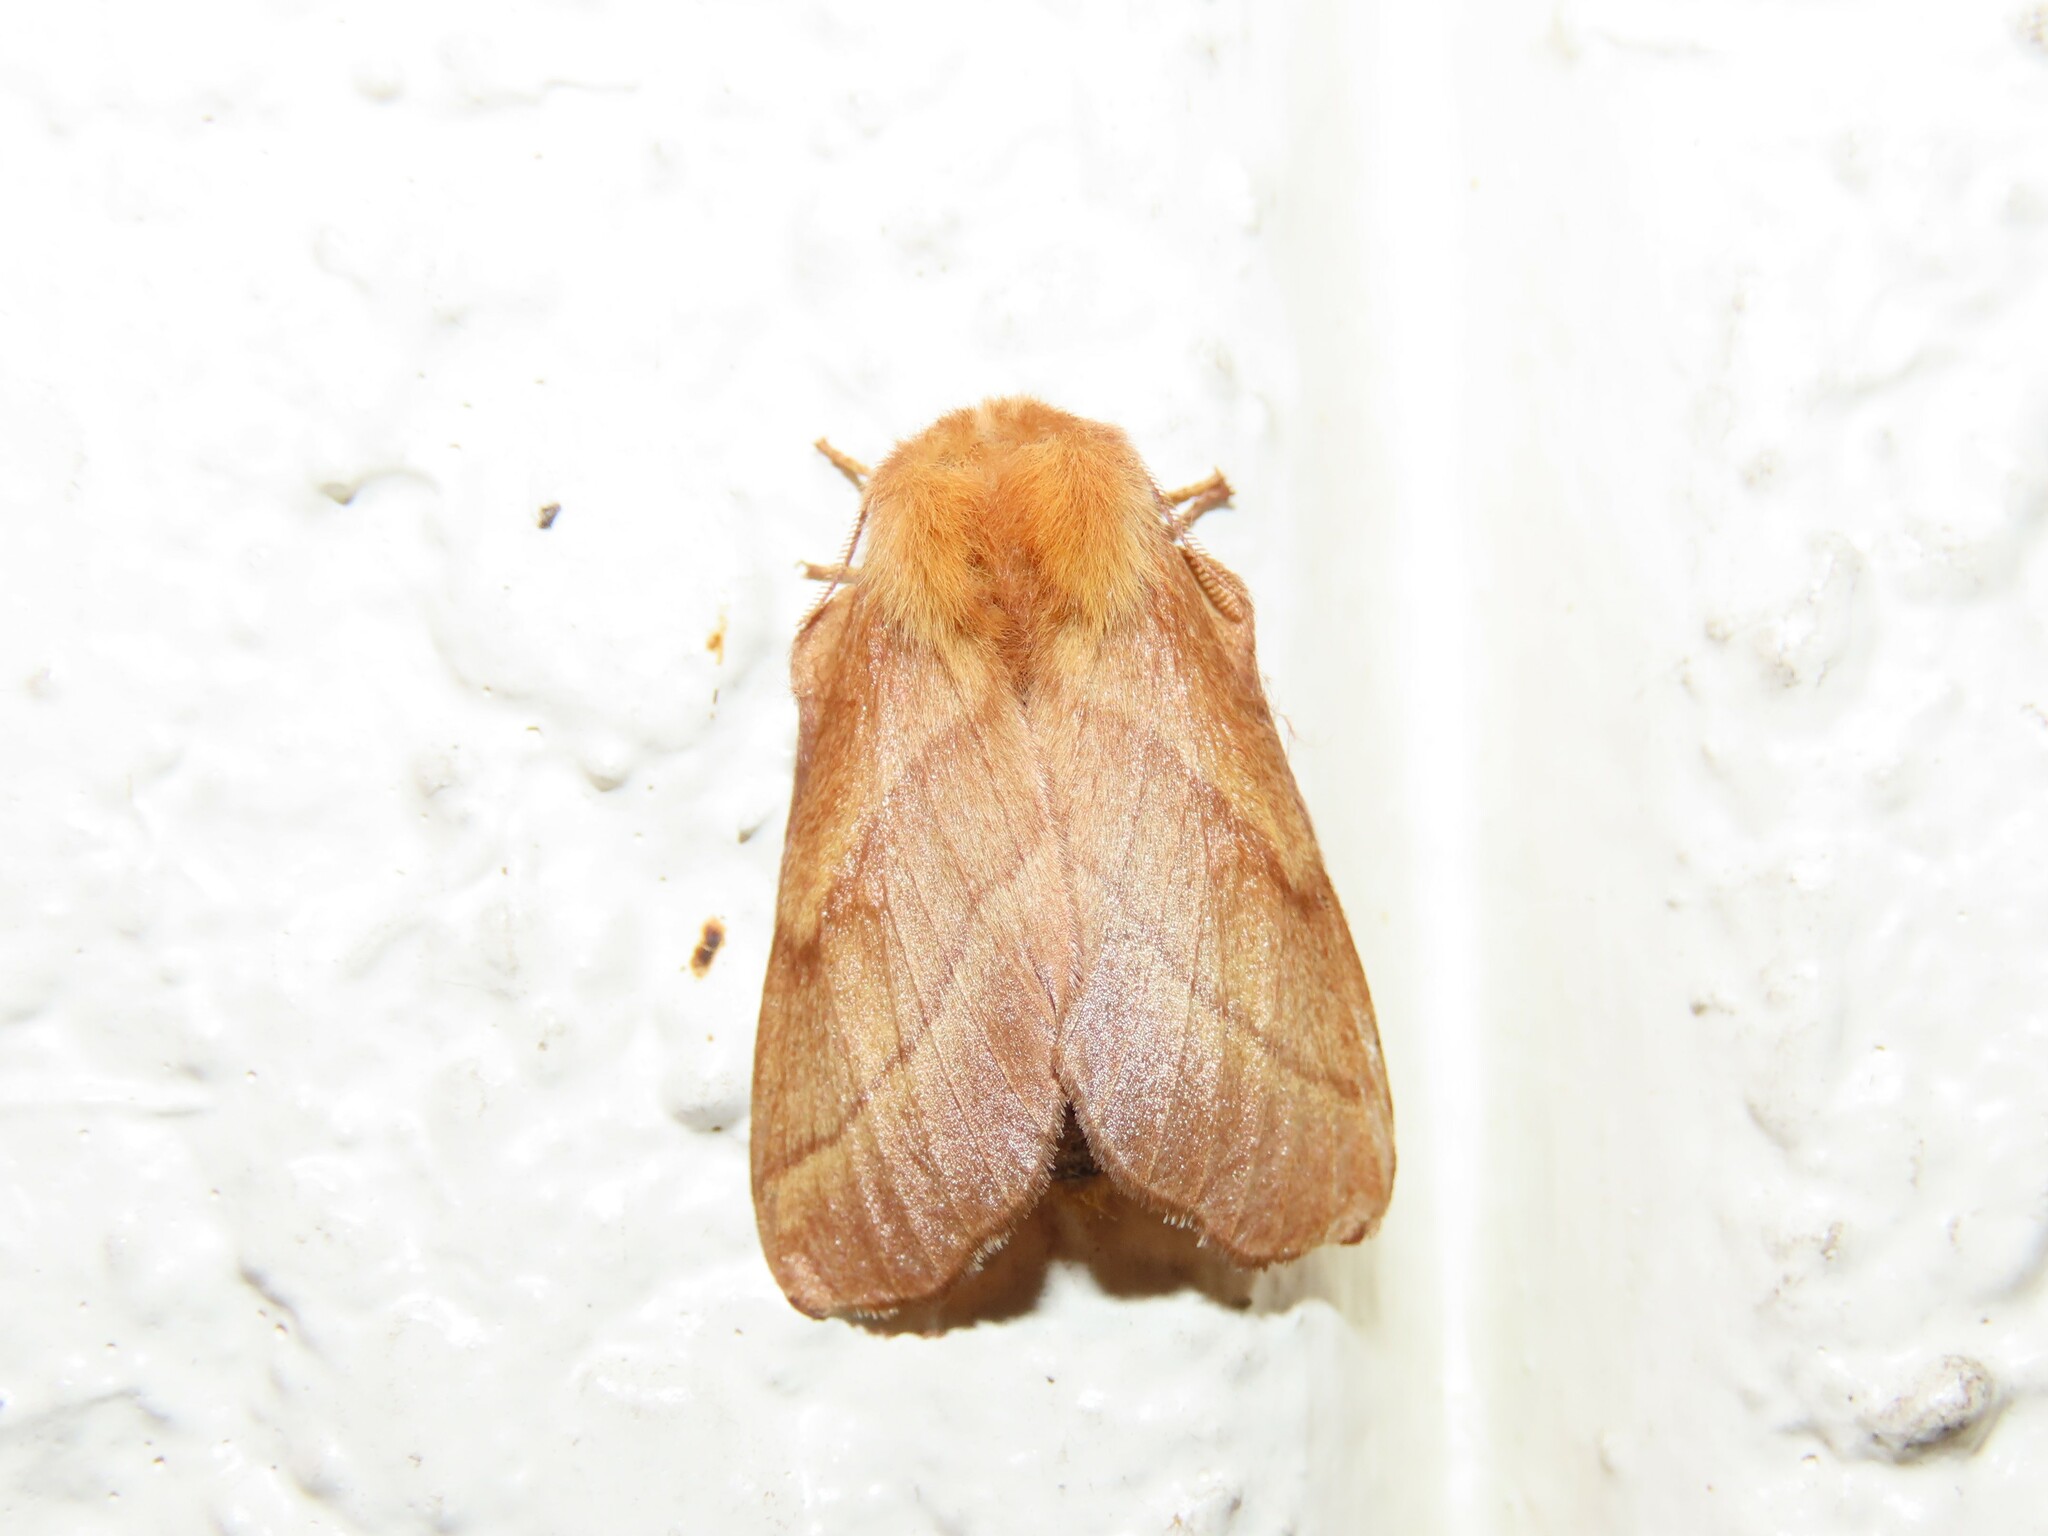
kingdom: Animalia
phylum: Arthropoda
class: Insecta
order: Lepidoptera
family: Lasiocampidae
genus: Malacosoma
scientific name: Malacosoma disstria
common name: Forest tent caterpillar
